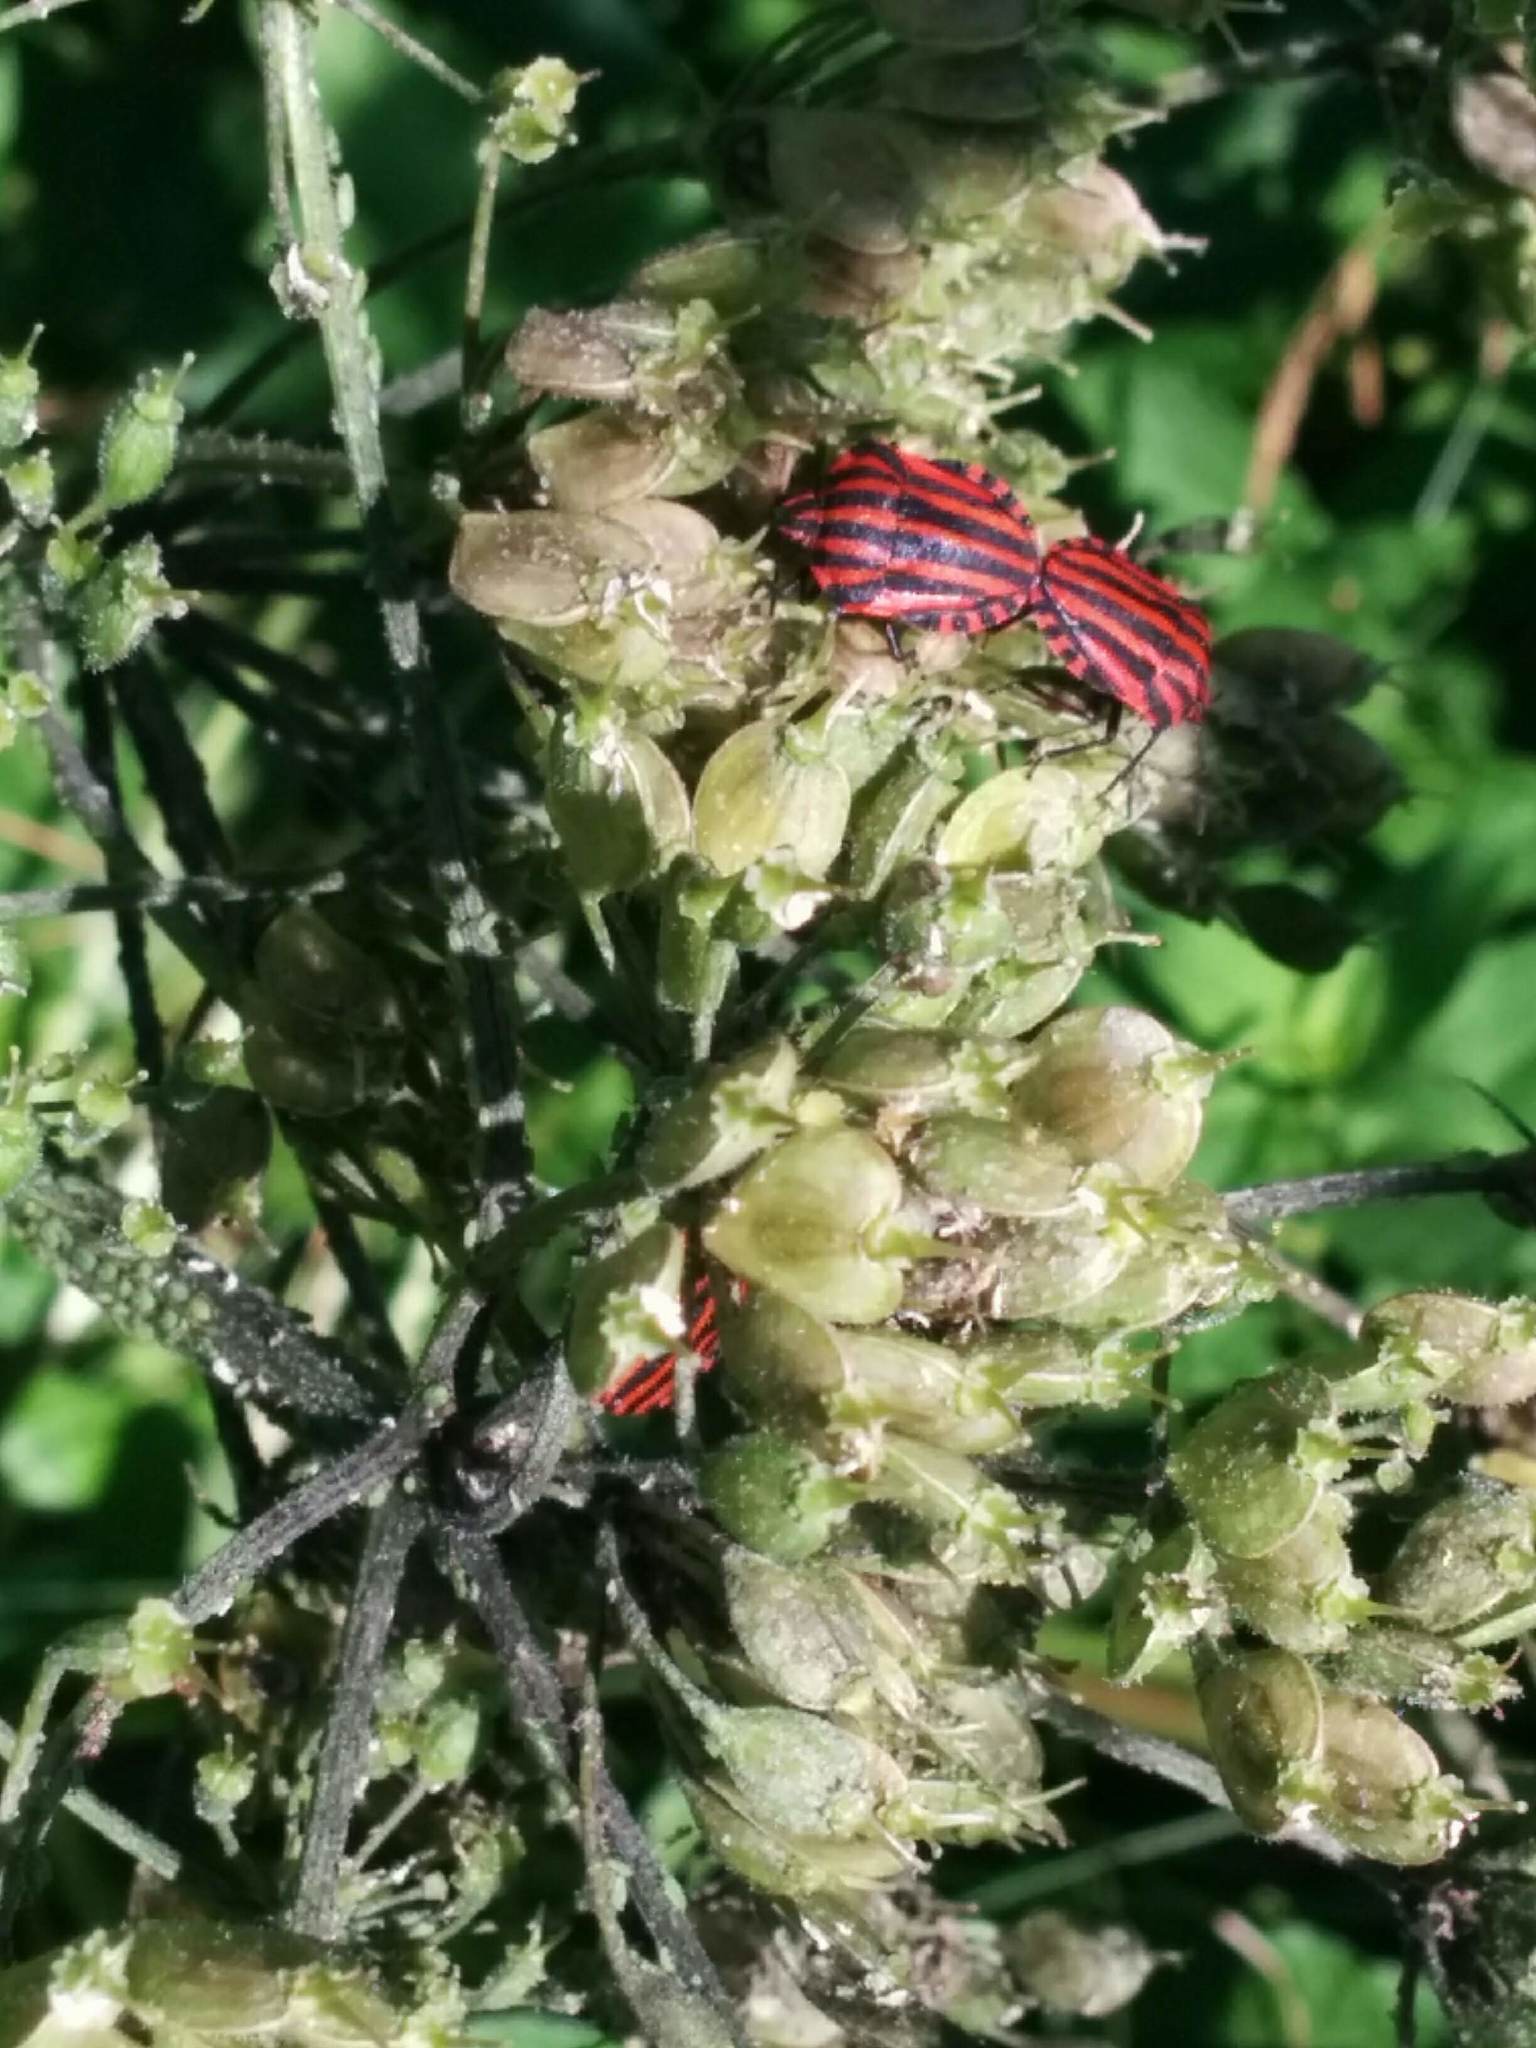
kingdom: Animalia
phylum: Arthropoda
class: Insecta
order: Hemiptera
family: Pentatomidae
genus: Graphosoma
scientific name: Graphosoma italicum
